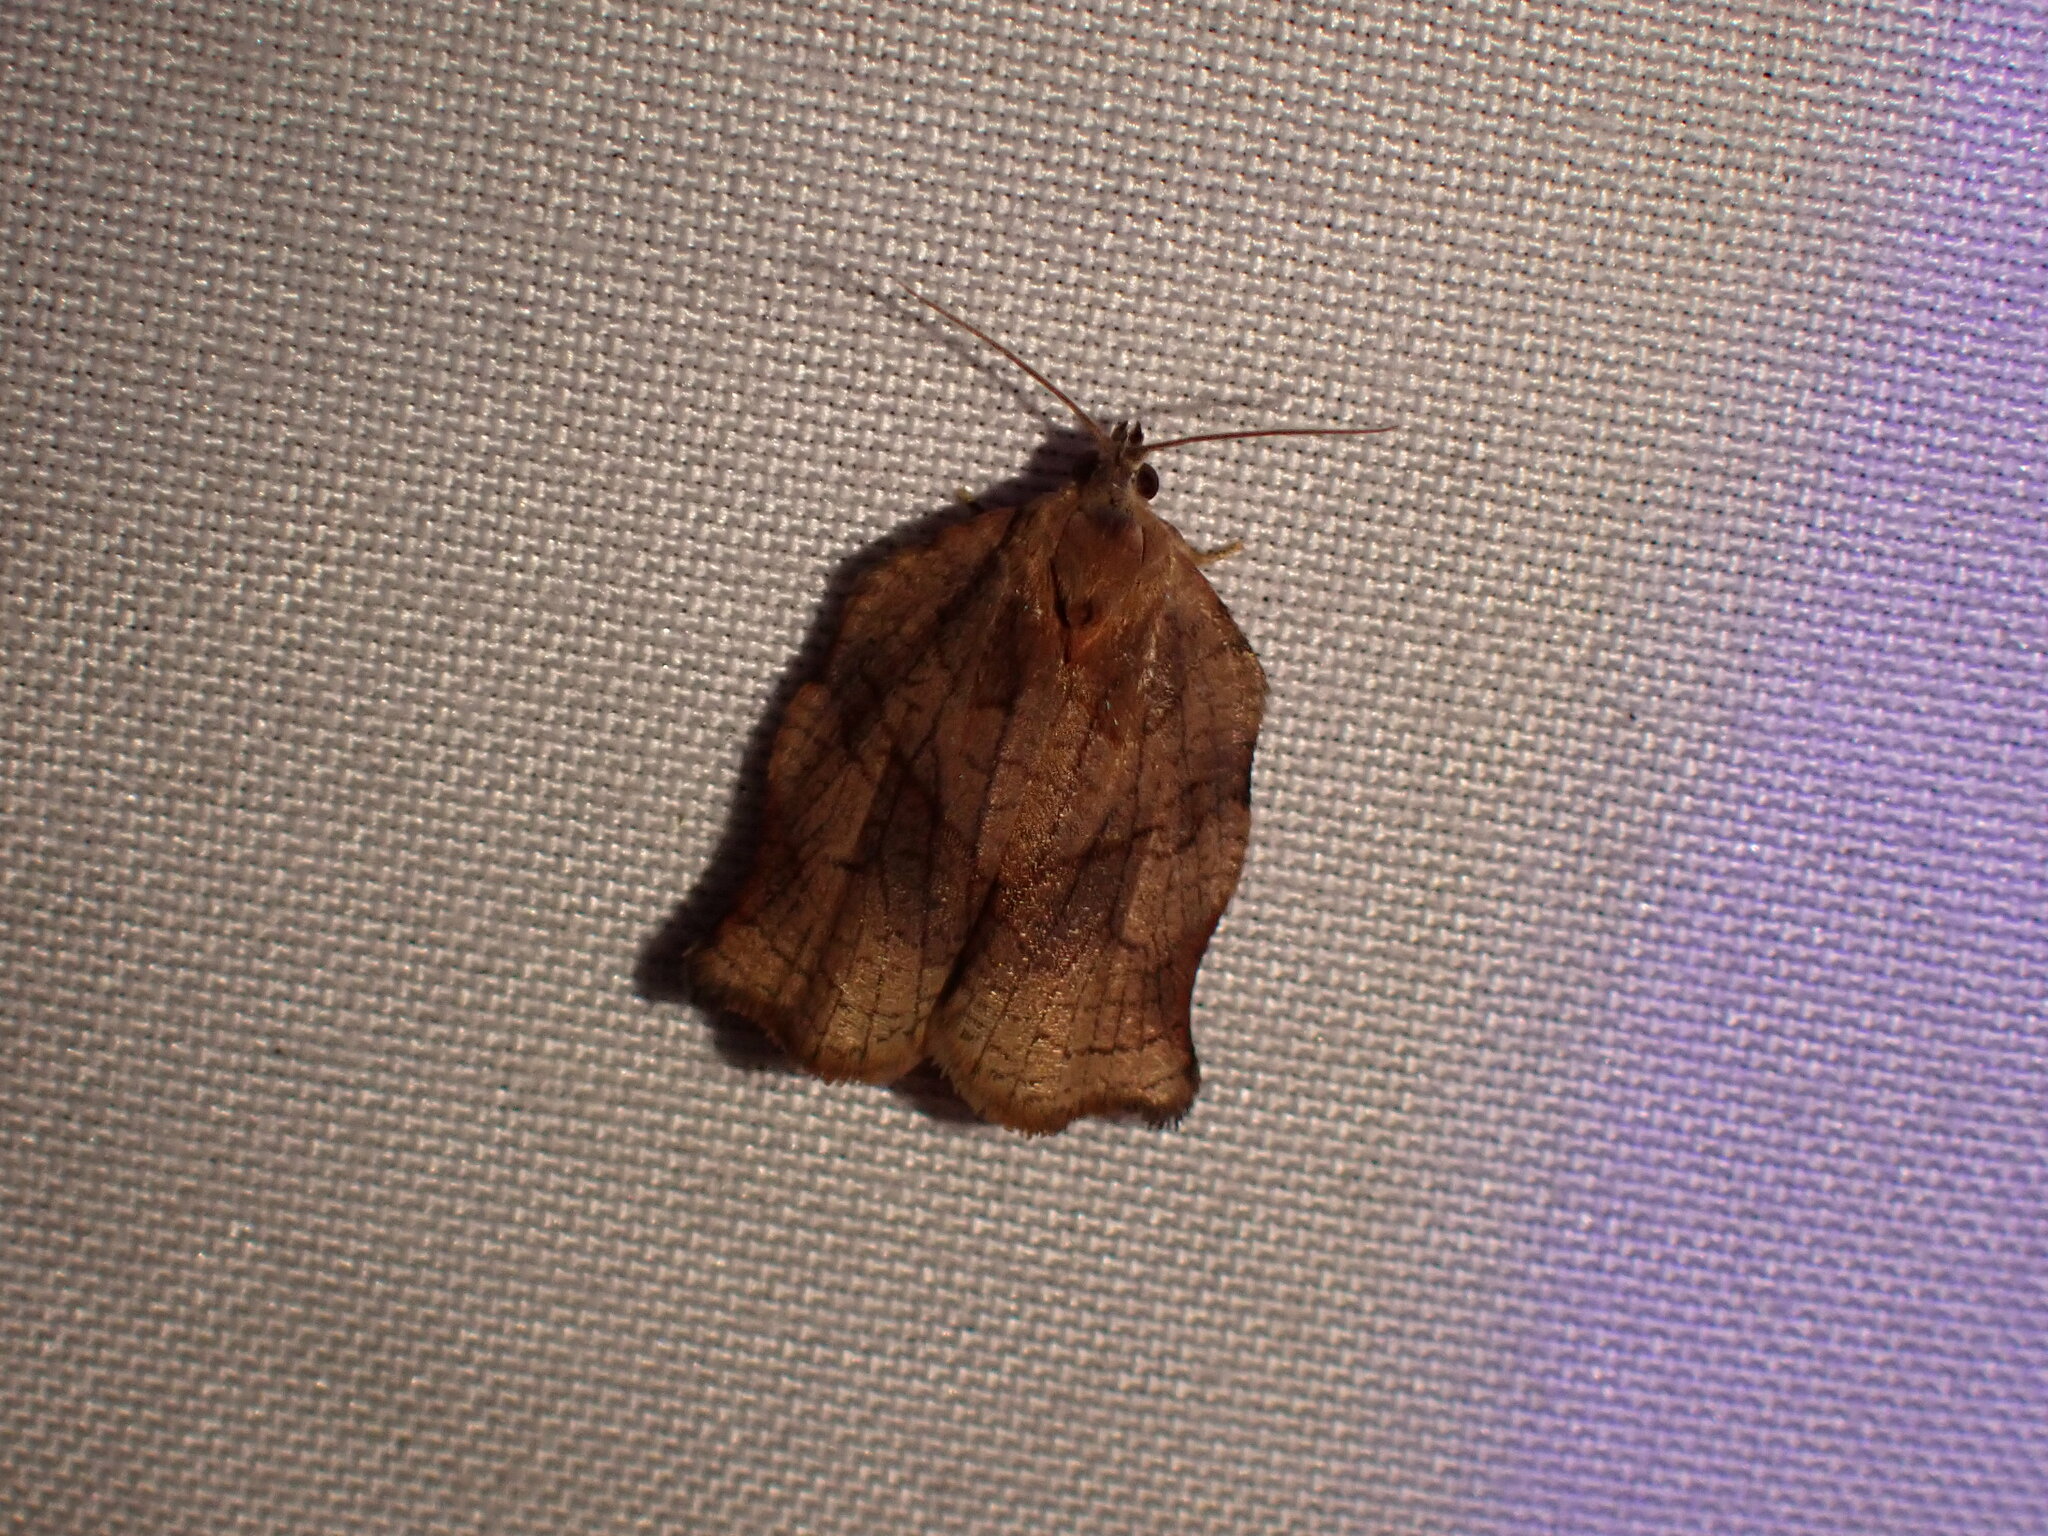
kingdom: Animalia
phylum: Arthropoda
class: Insecta
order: Lepidoptera
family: Tortricidae
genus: Archips
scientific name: Archips purpurana
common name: Omnivorous leafroller
